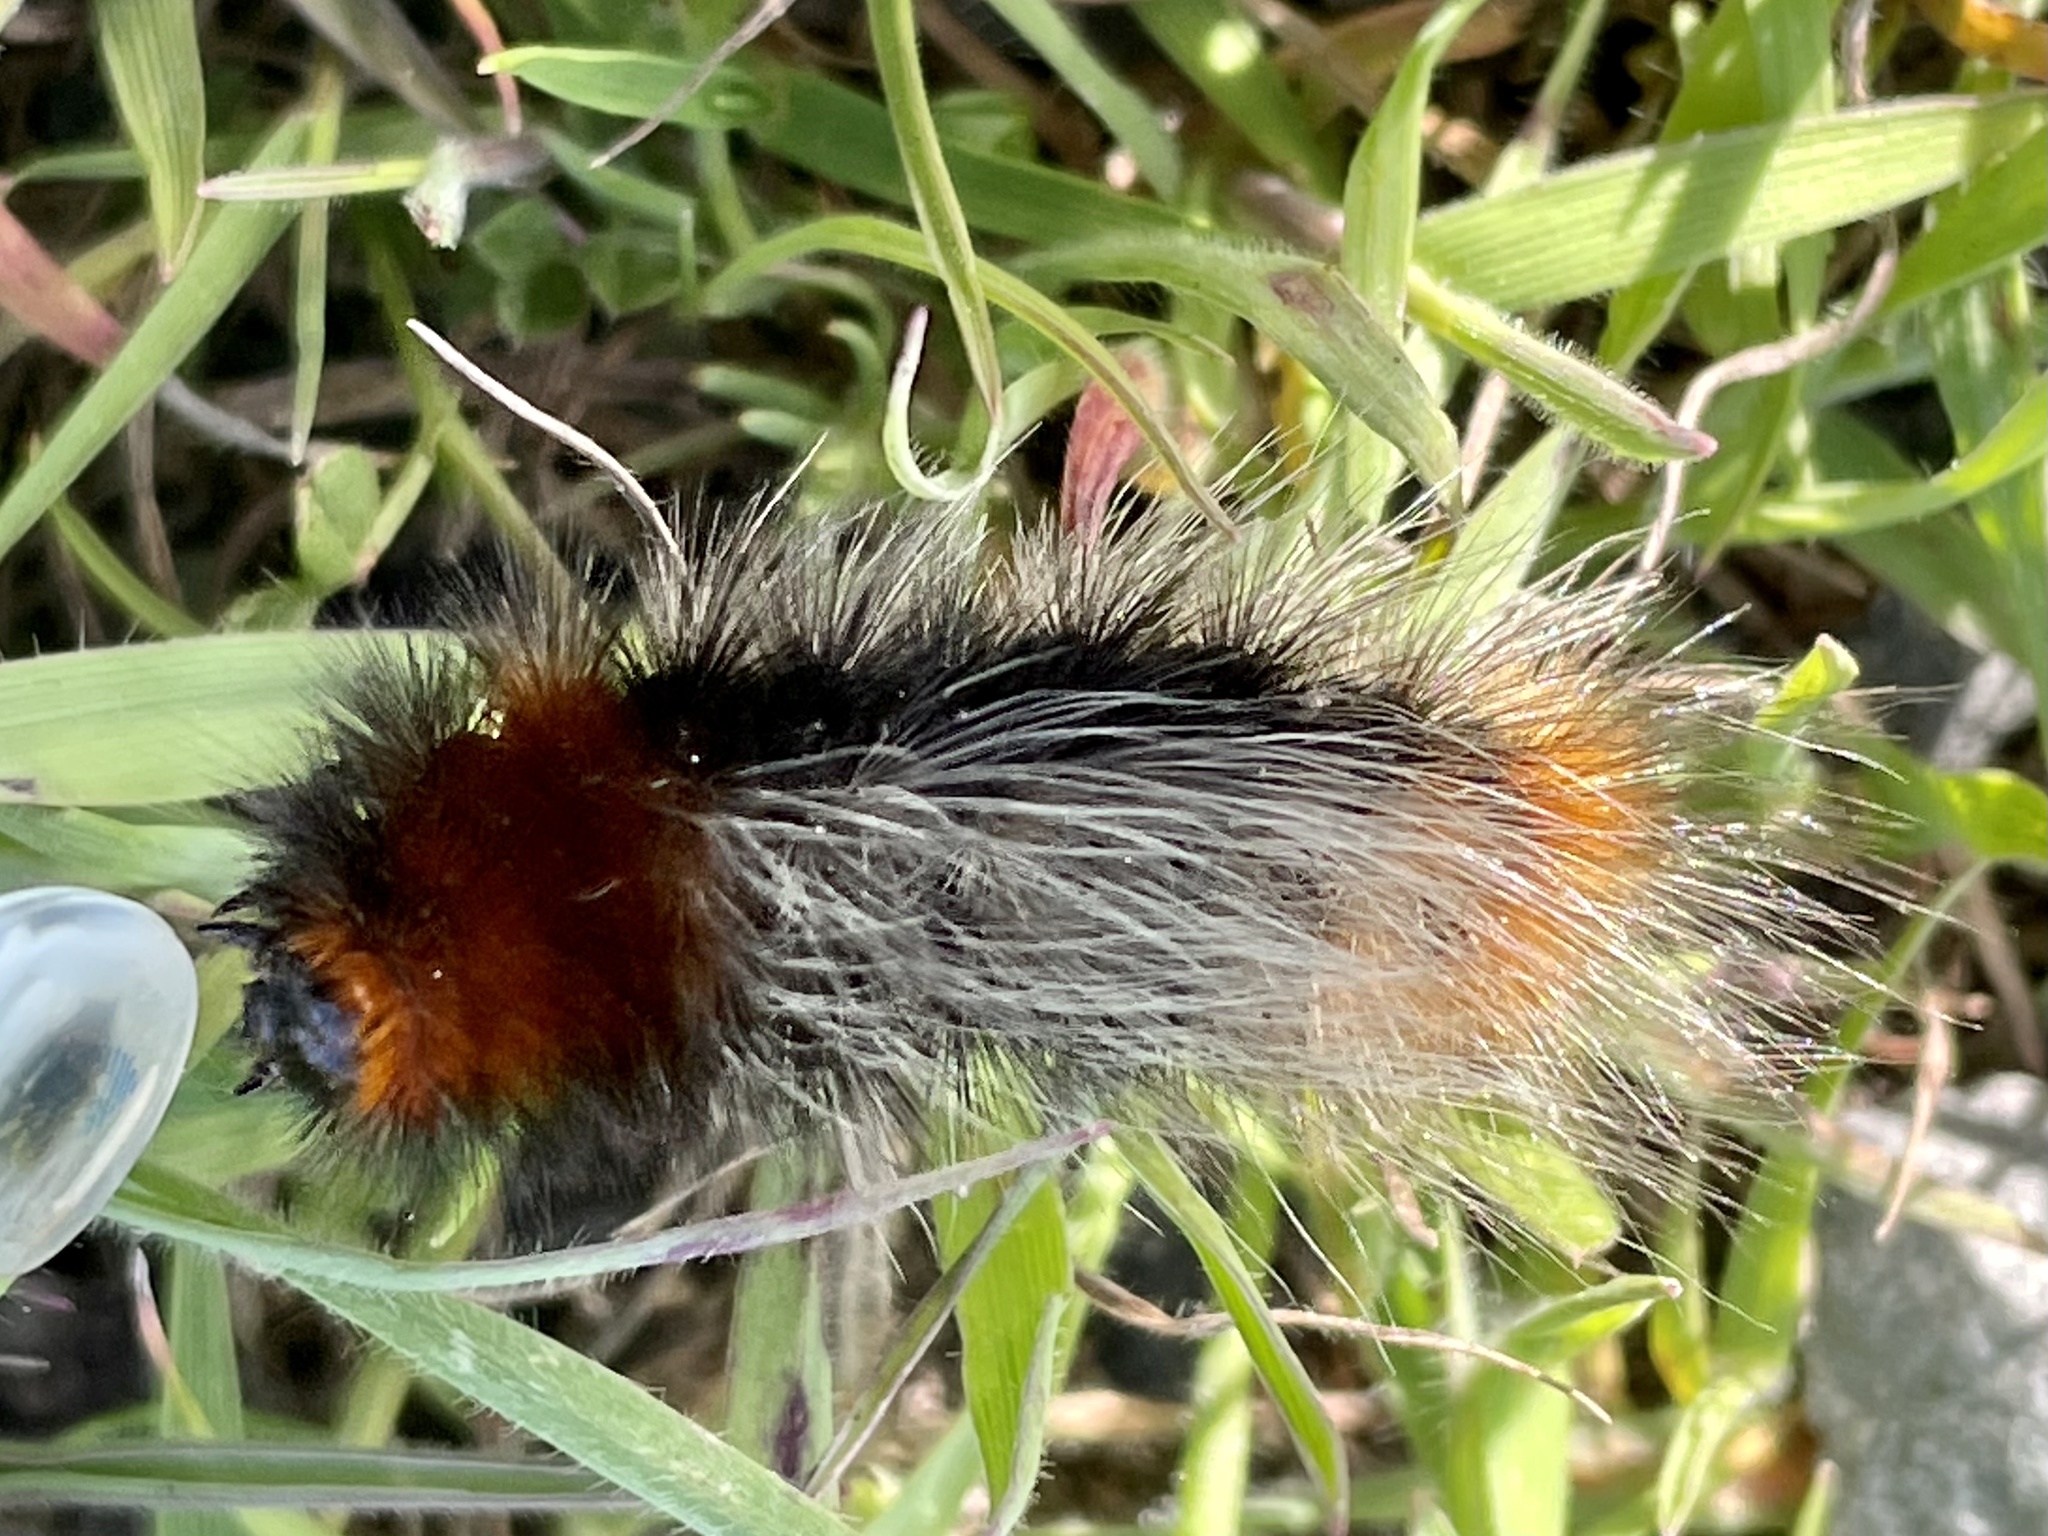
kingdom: Animalia
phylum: Arthropoda
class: Insecta
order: Lepidoptera
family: Erebidae
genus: Arctia
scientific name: Arctia tigrina
